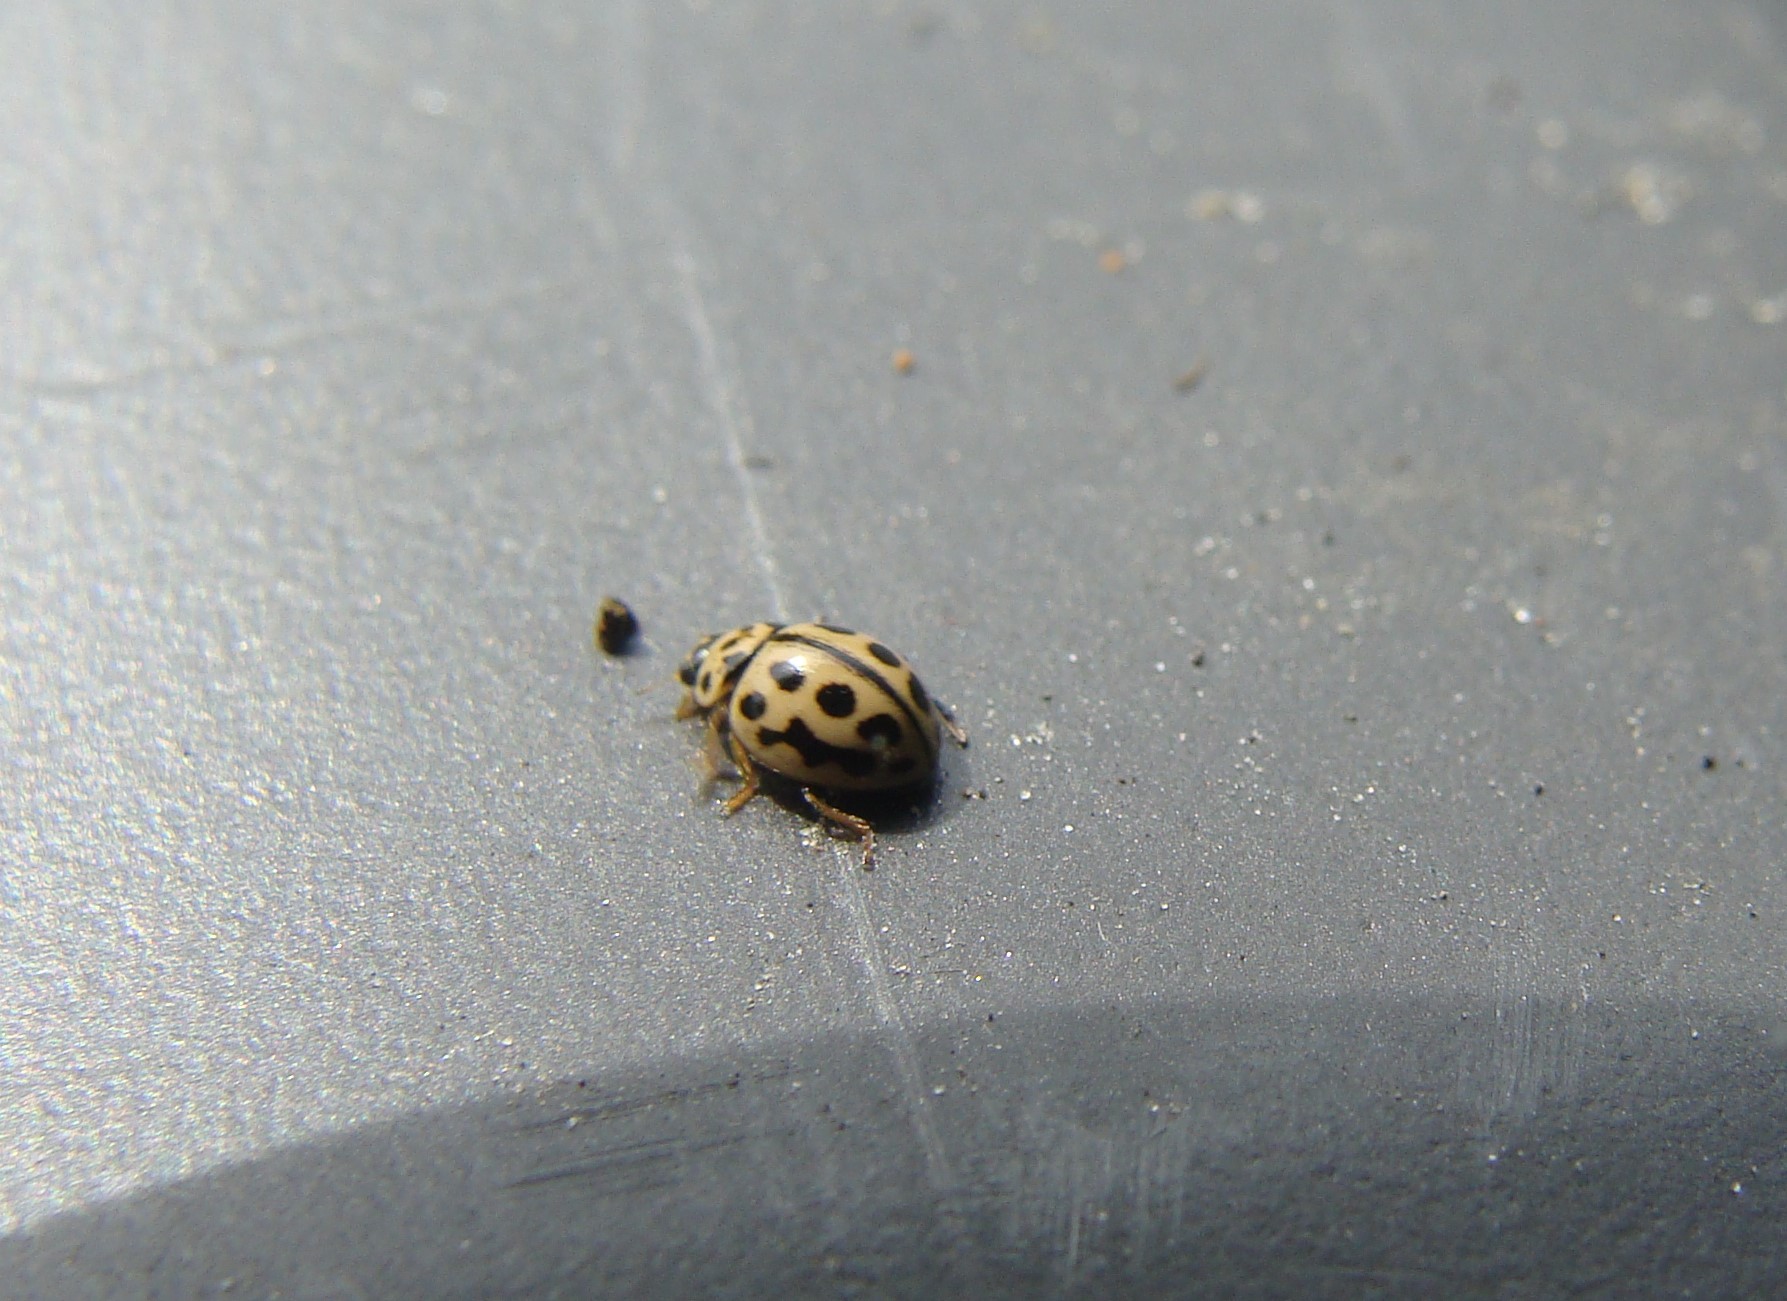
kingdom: Animalia
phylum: Arthropoda
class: Insecta
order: Coleoptera
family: Coccinellidae
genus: Tytthaspis
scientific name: Tytthaspis sedecimpunctata
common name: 16-spot ladybird
